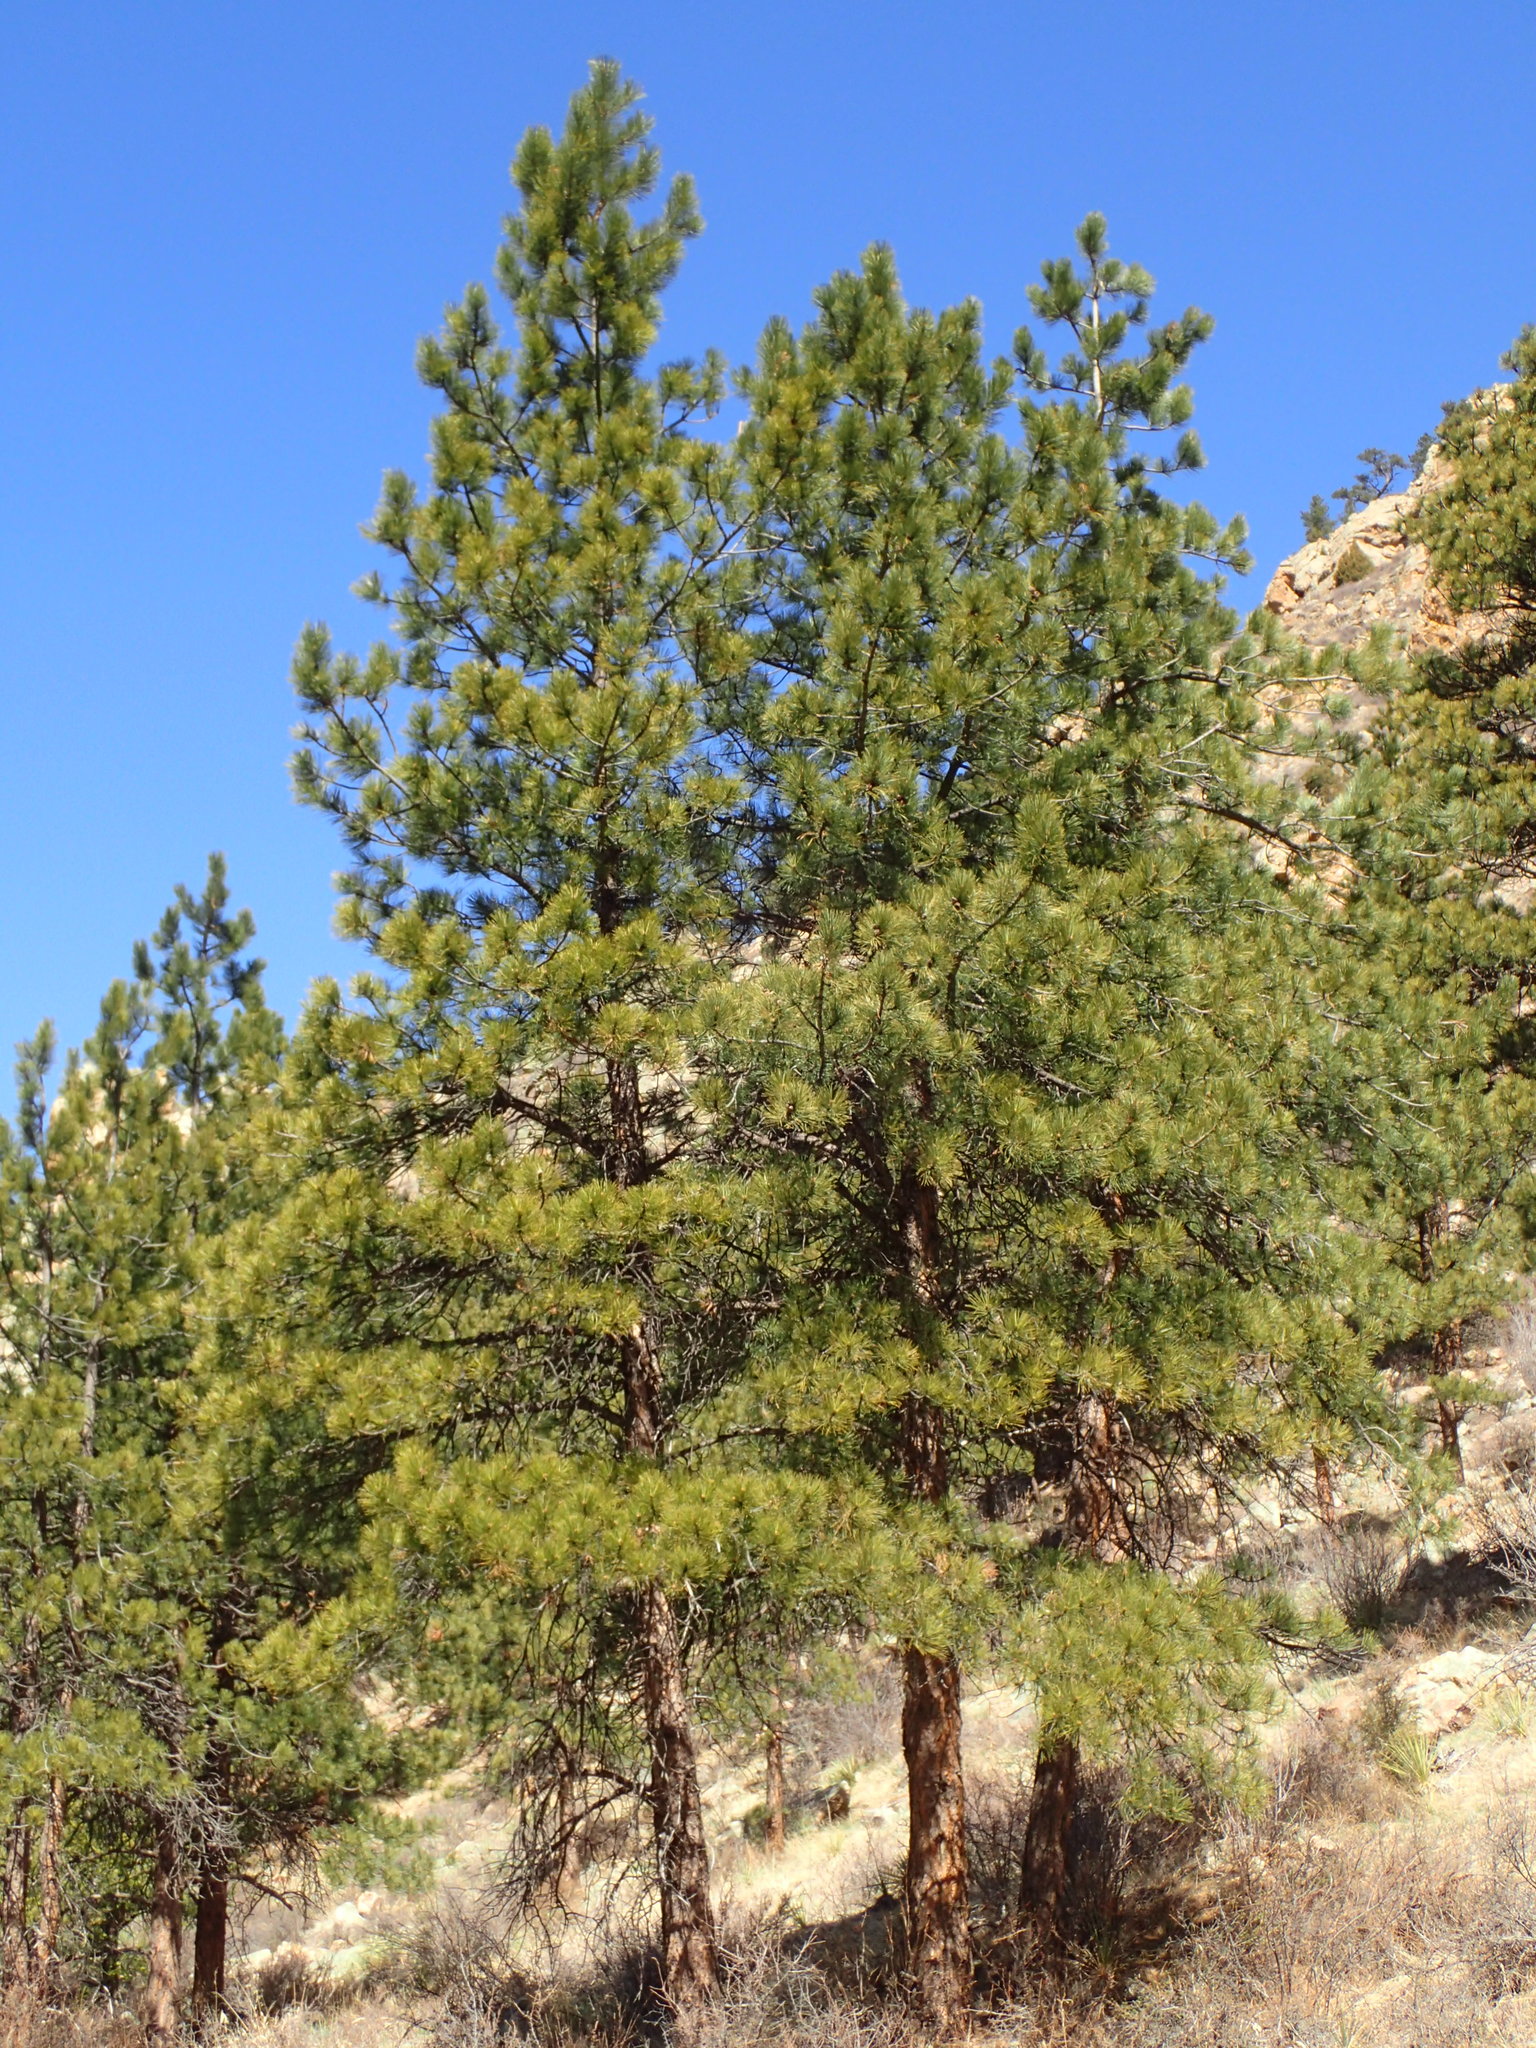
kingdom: Plantae
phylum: Tracheophyta
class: Pinopsida
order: Pinales
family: Pinaceae
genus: Pinus
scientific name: Pinus
